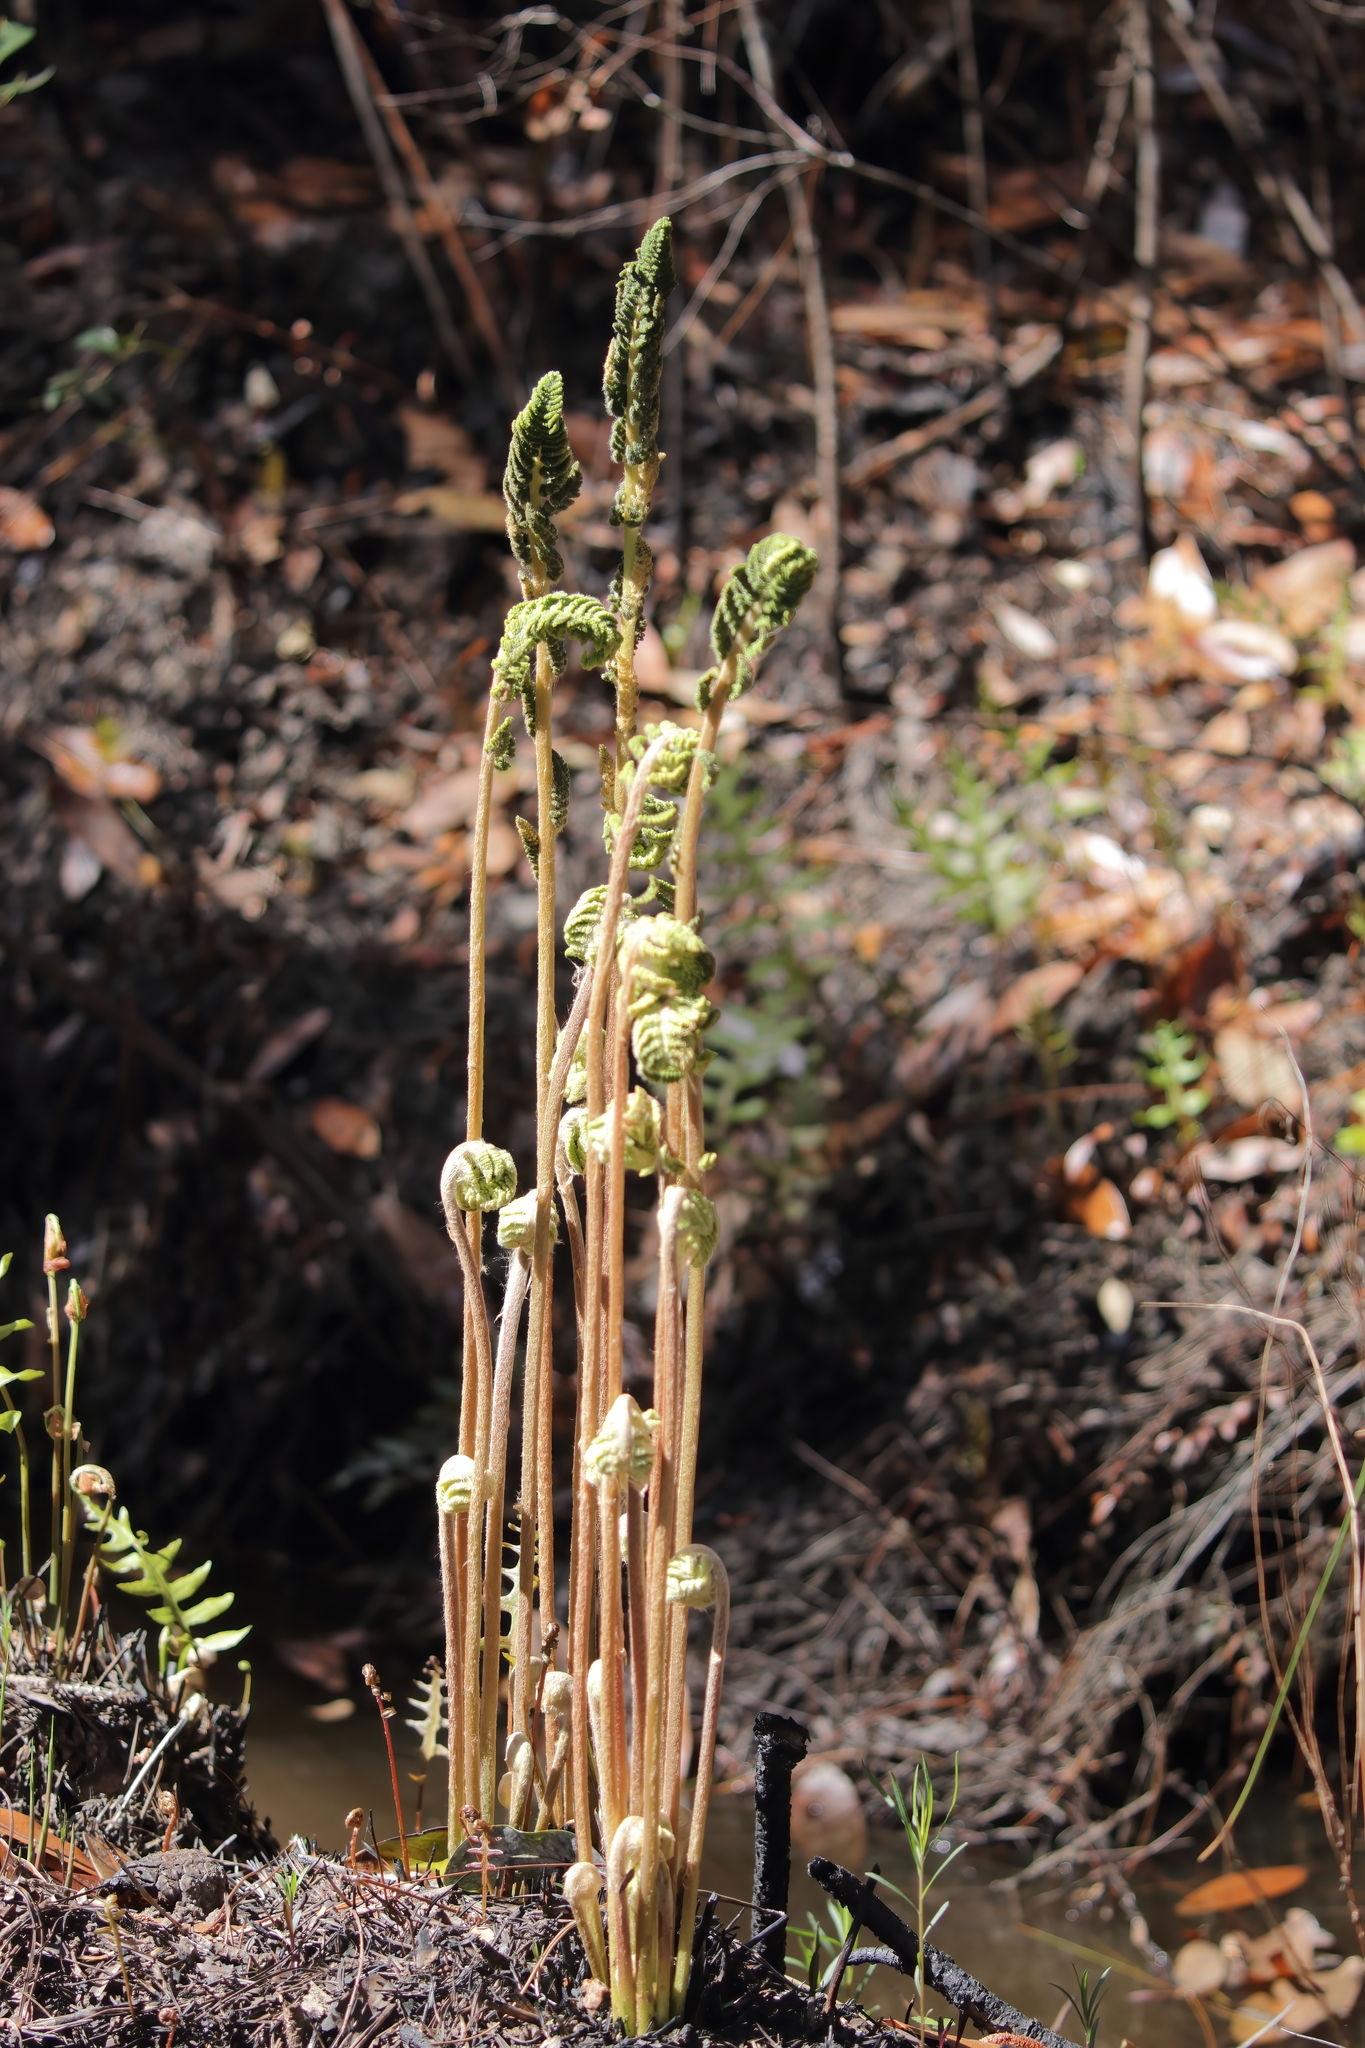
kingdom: Plantae
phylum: Tracheophyta
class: Polypodiopsida
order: Osmundales
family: Osmundaceae
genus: Osmundastrum
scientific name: Osmundastrum cinnamomeum
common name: Cinnamon fern
